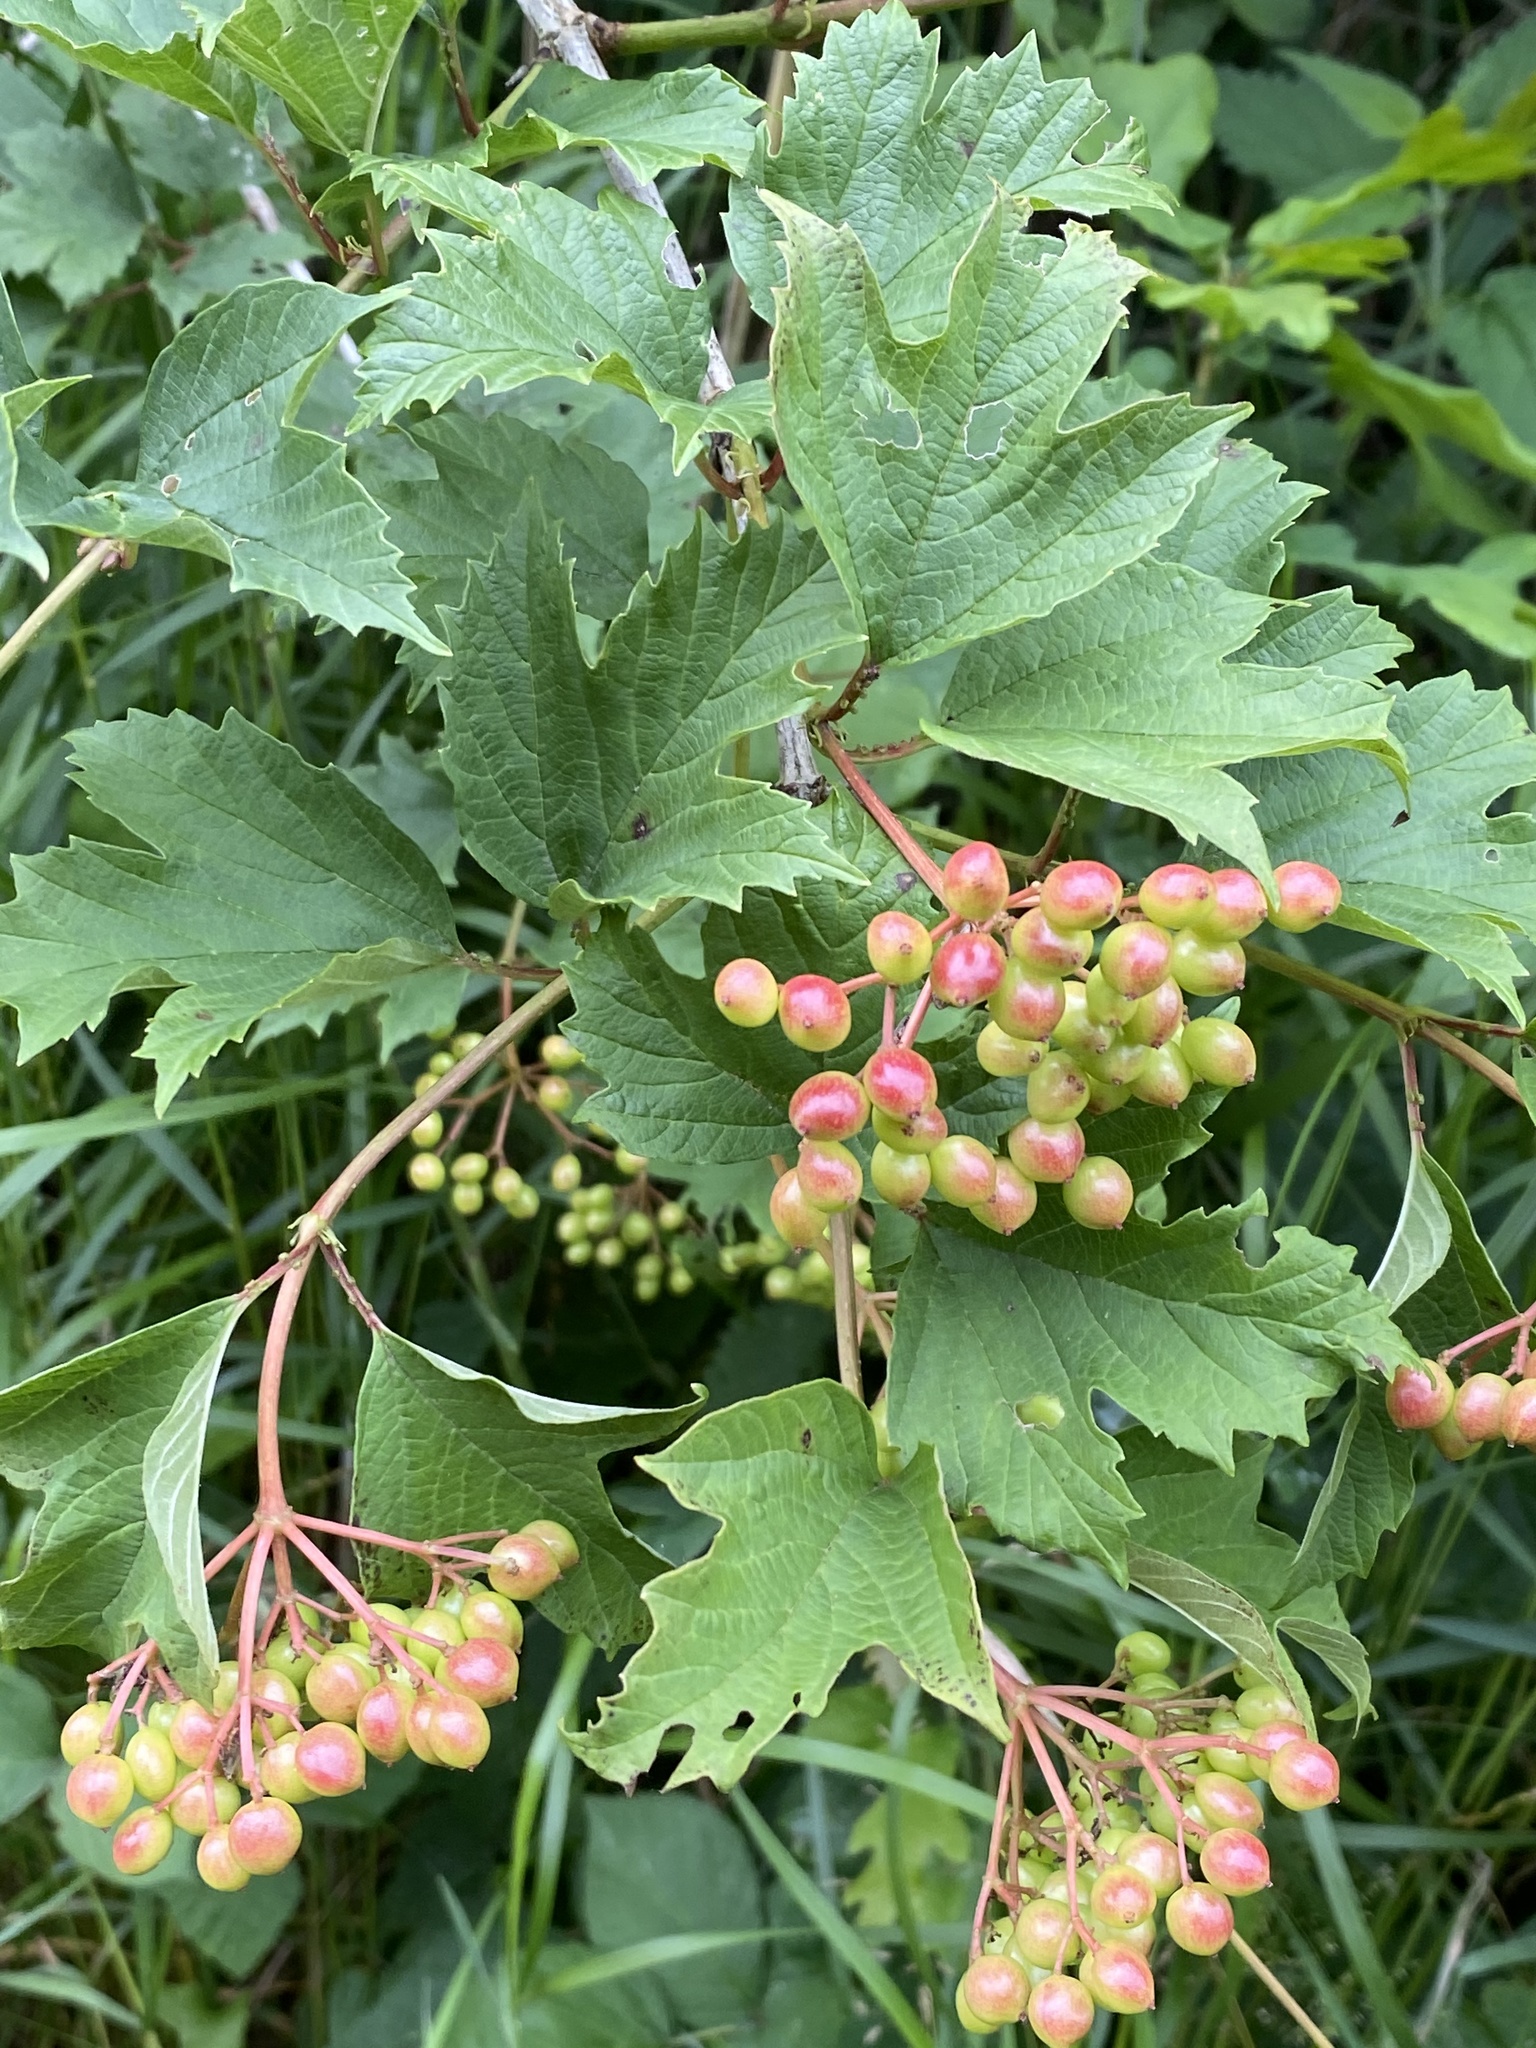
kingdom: Plantae
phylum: Tracheophyta
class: Magnoliopsida
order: Dipsacales
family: Viburnaceae
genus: Viburnum
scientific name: Viburnum opulus
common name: Guelder-rose
